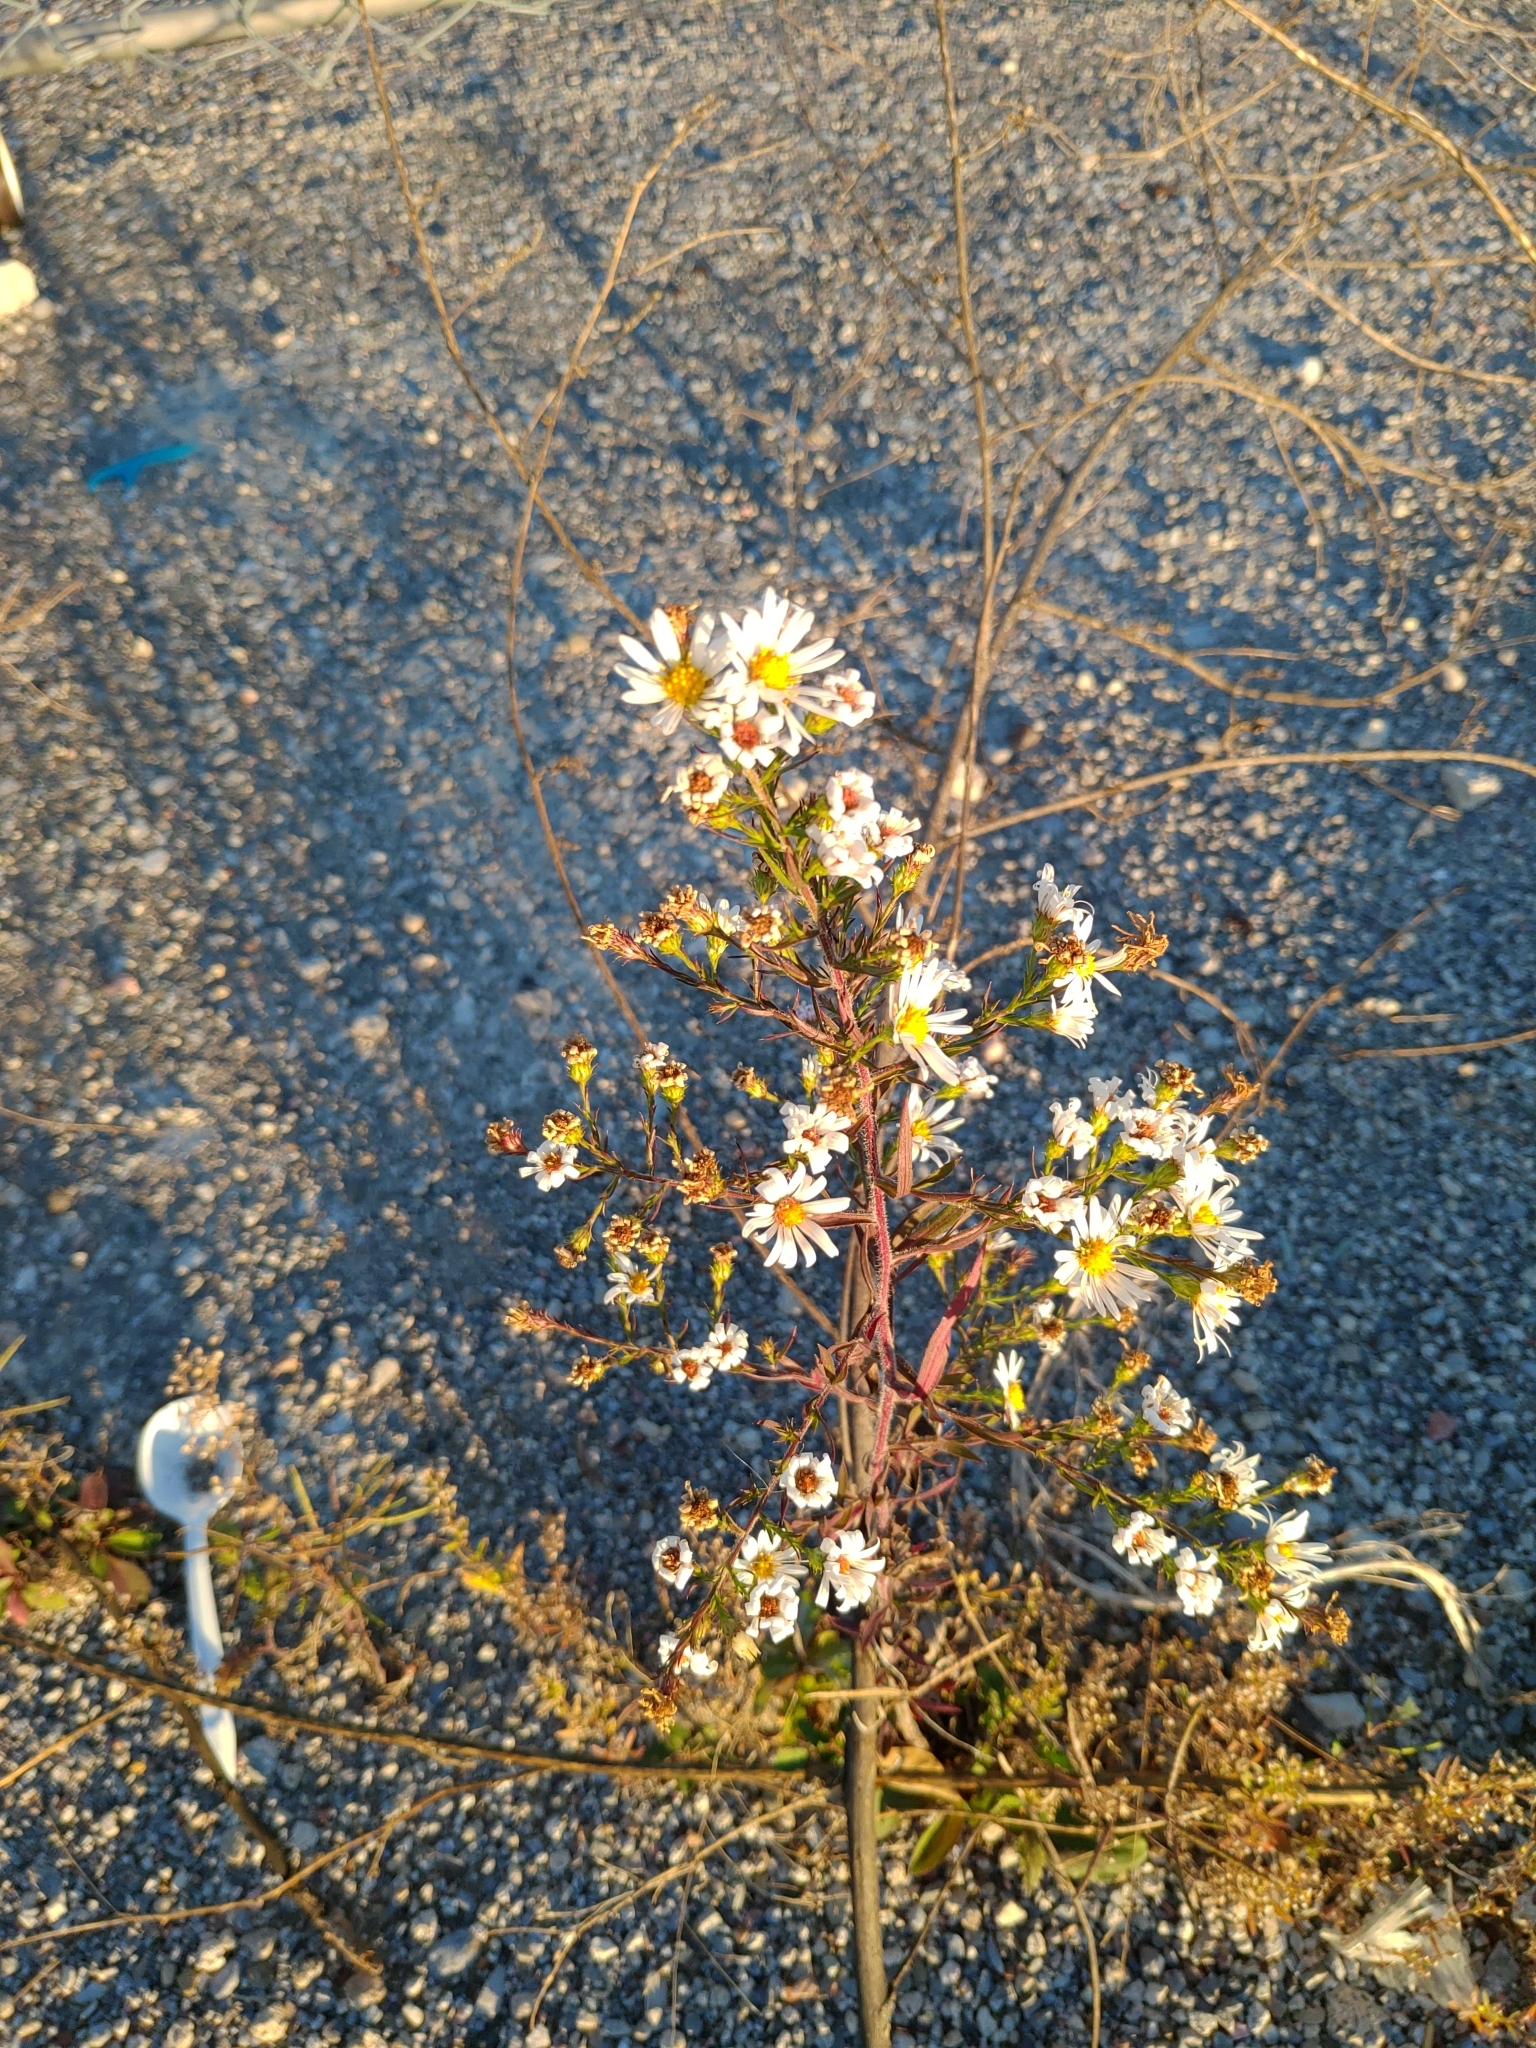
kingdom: Plantae
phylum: Tracheophyta
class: Magnoliopsida
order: Asterales
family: Asteraceae
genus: Symphyotrichum
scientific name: Symphyotrichum pilosum
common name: Awl aster
